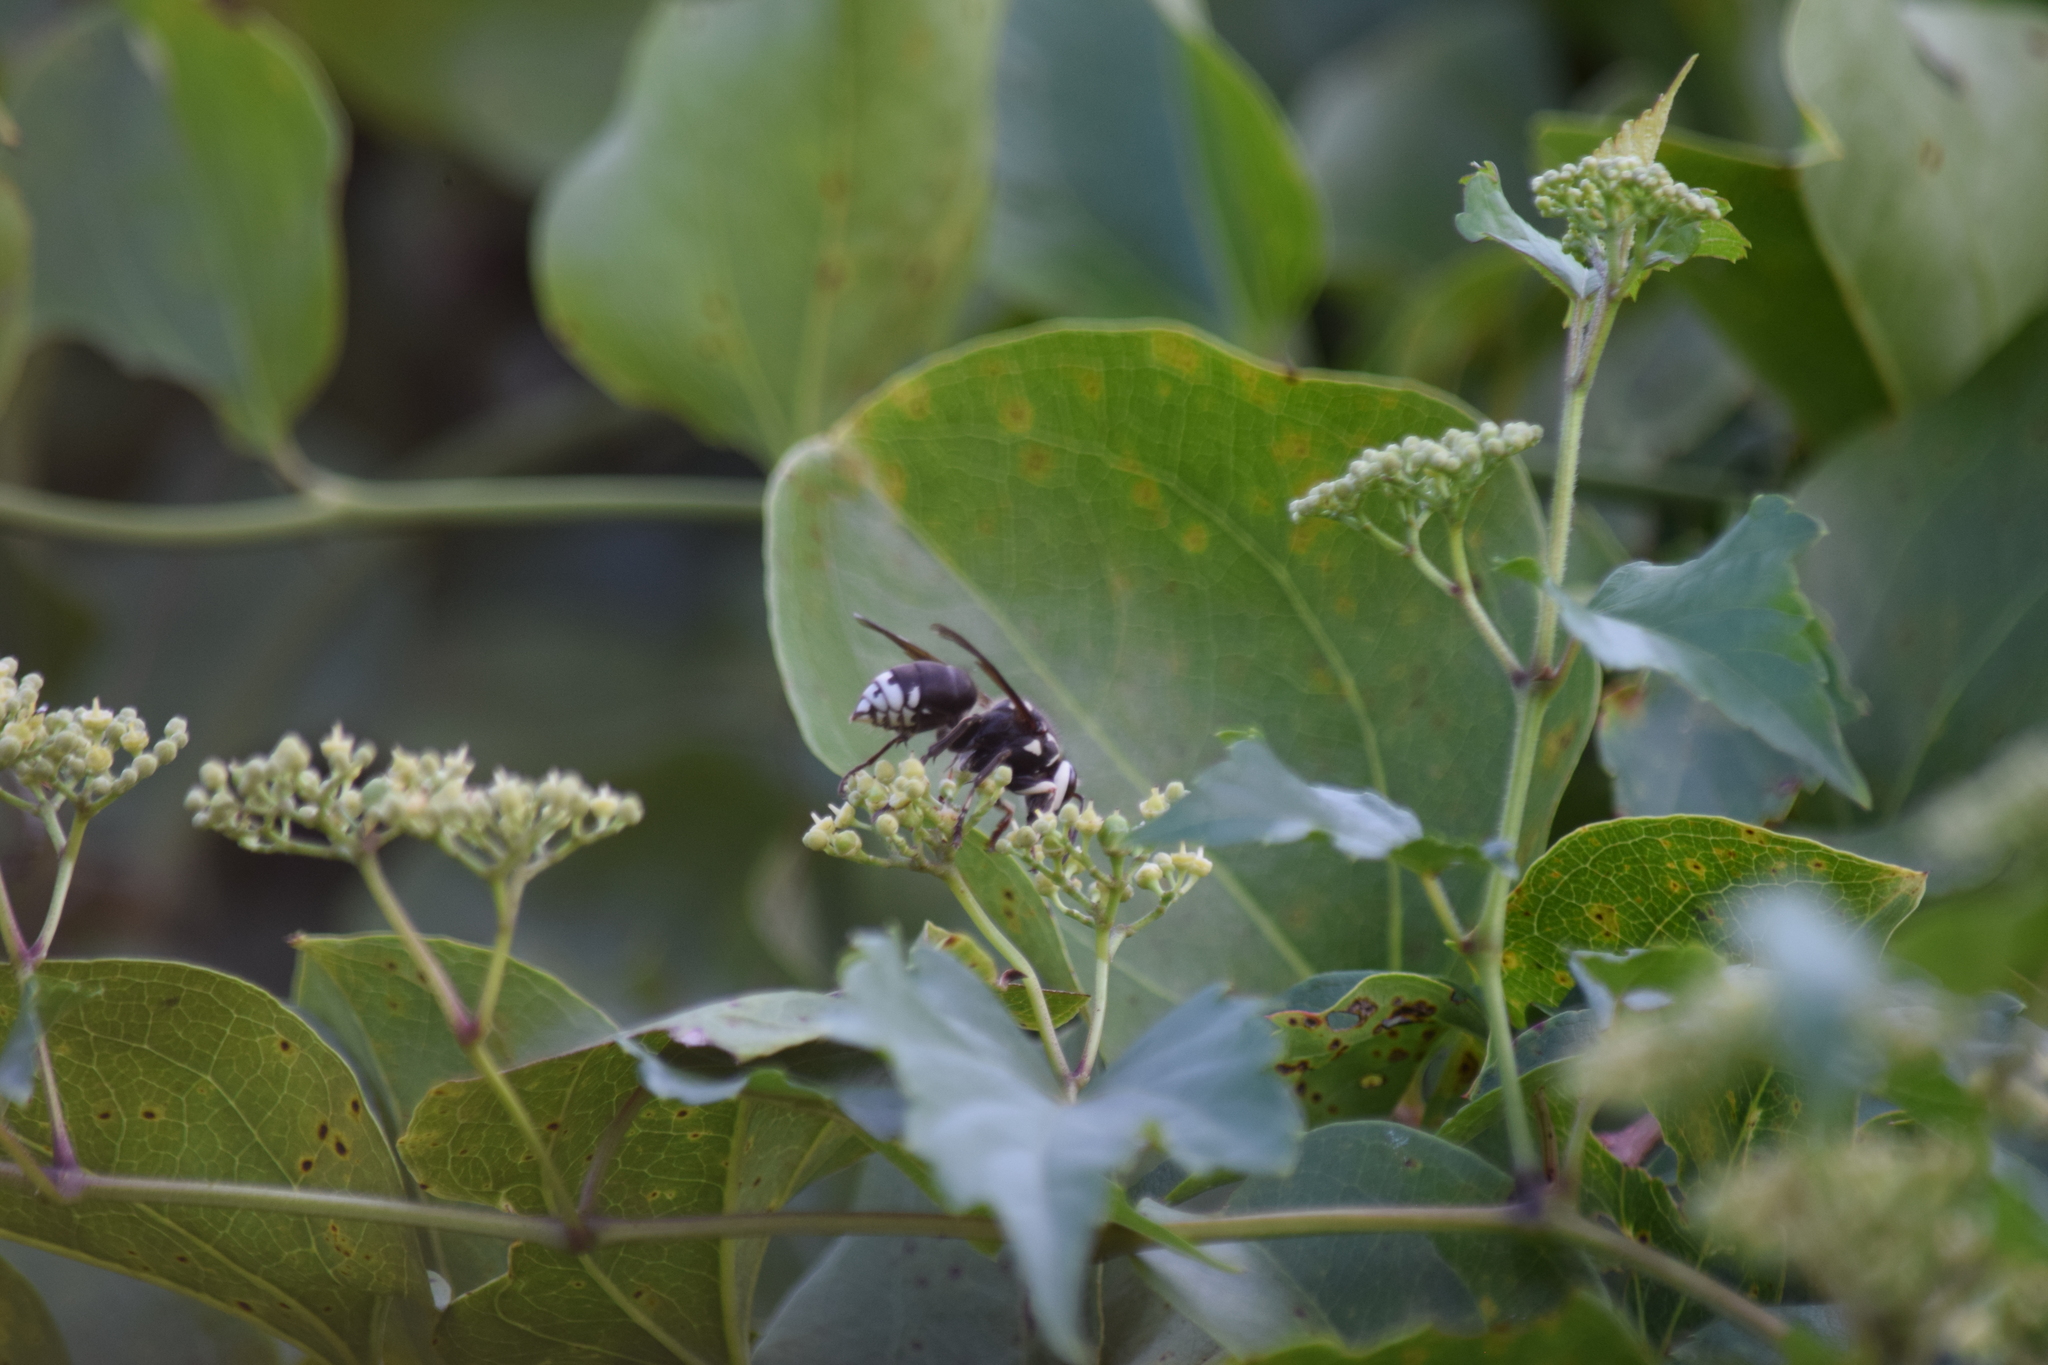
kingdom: Animalia
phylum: Arthropoda
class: Insecta
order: Hymenoptera
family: Vespidae
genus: Dolichovespula
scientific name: Dolichovespula maculata
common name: Bald-faced hornet
